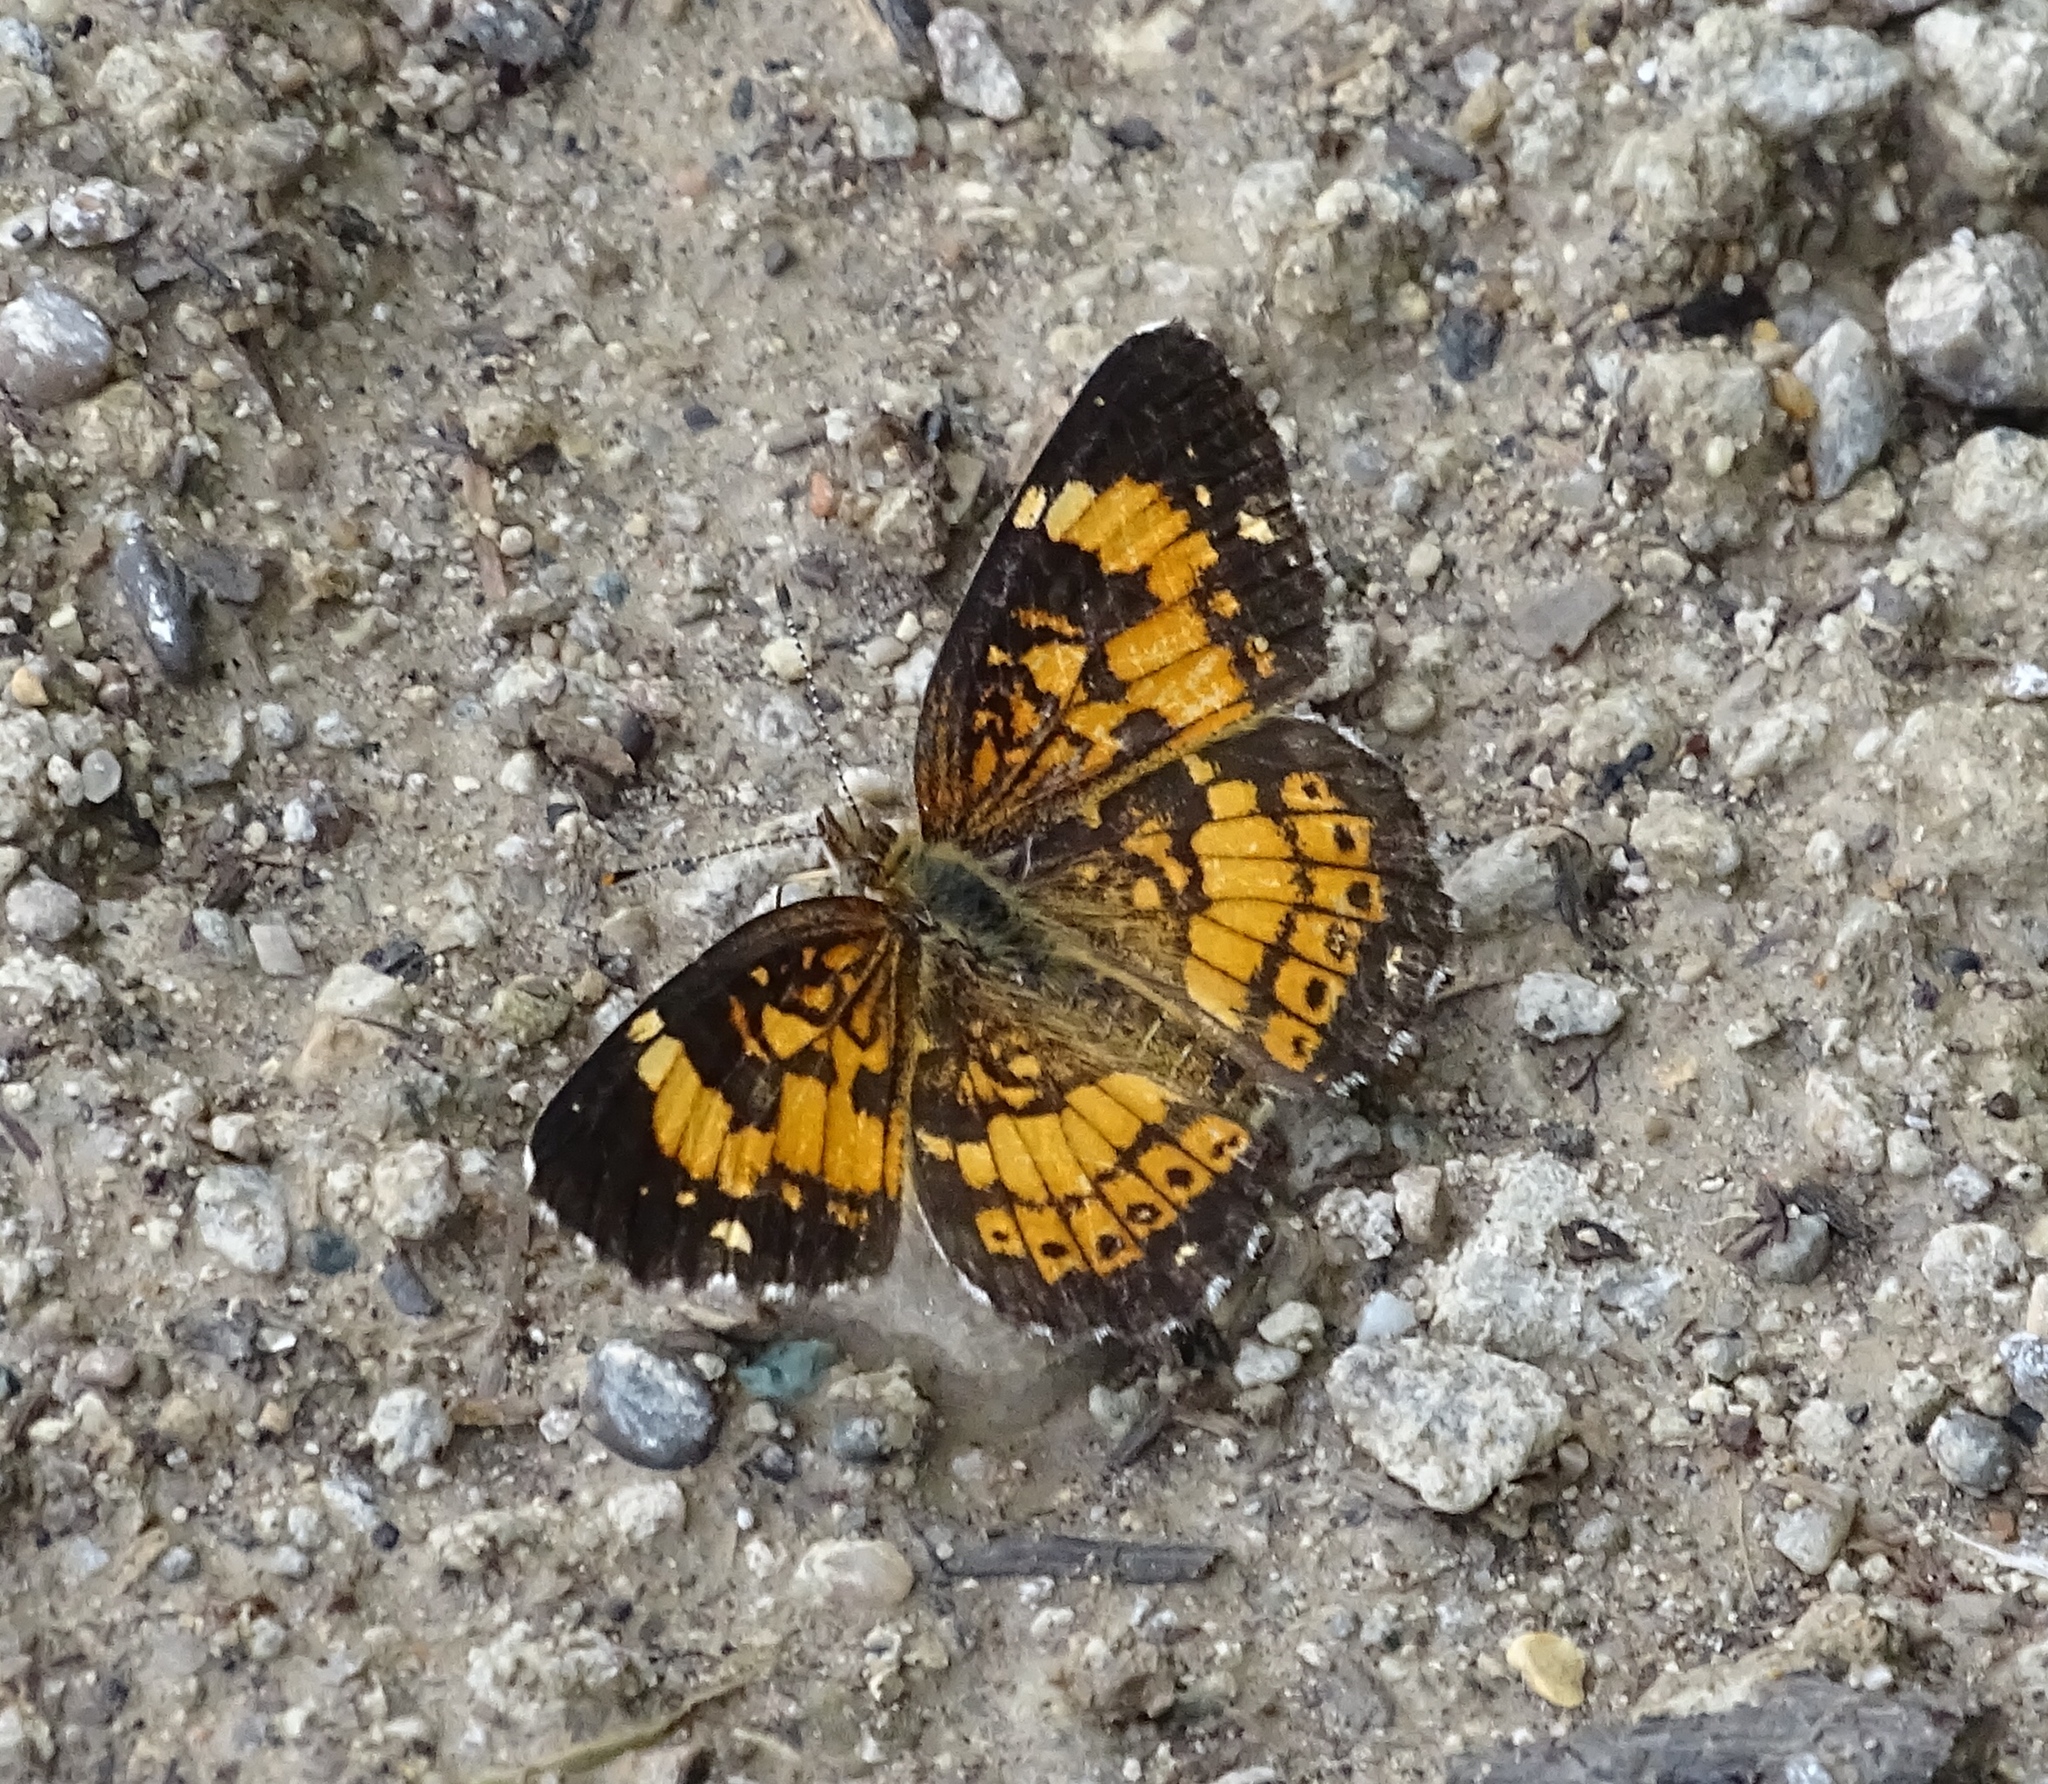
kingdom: Animalia
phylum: Arthropoda
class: Insecta
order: Lepidoptera
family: Nymphalidae
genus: Chlosyne
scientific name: Chlosyne nycteis
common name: Silvery checkerspot
